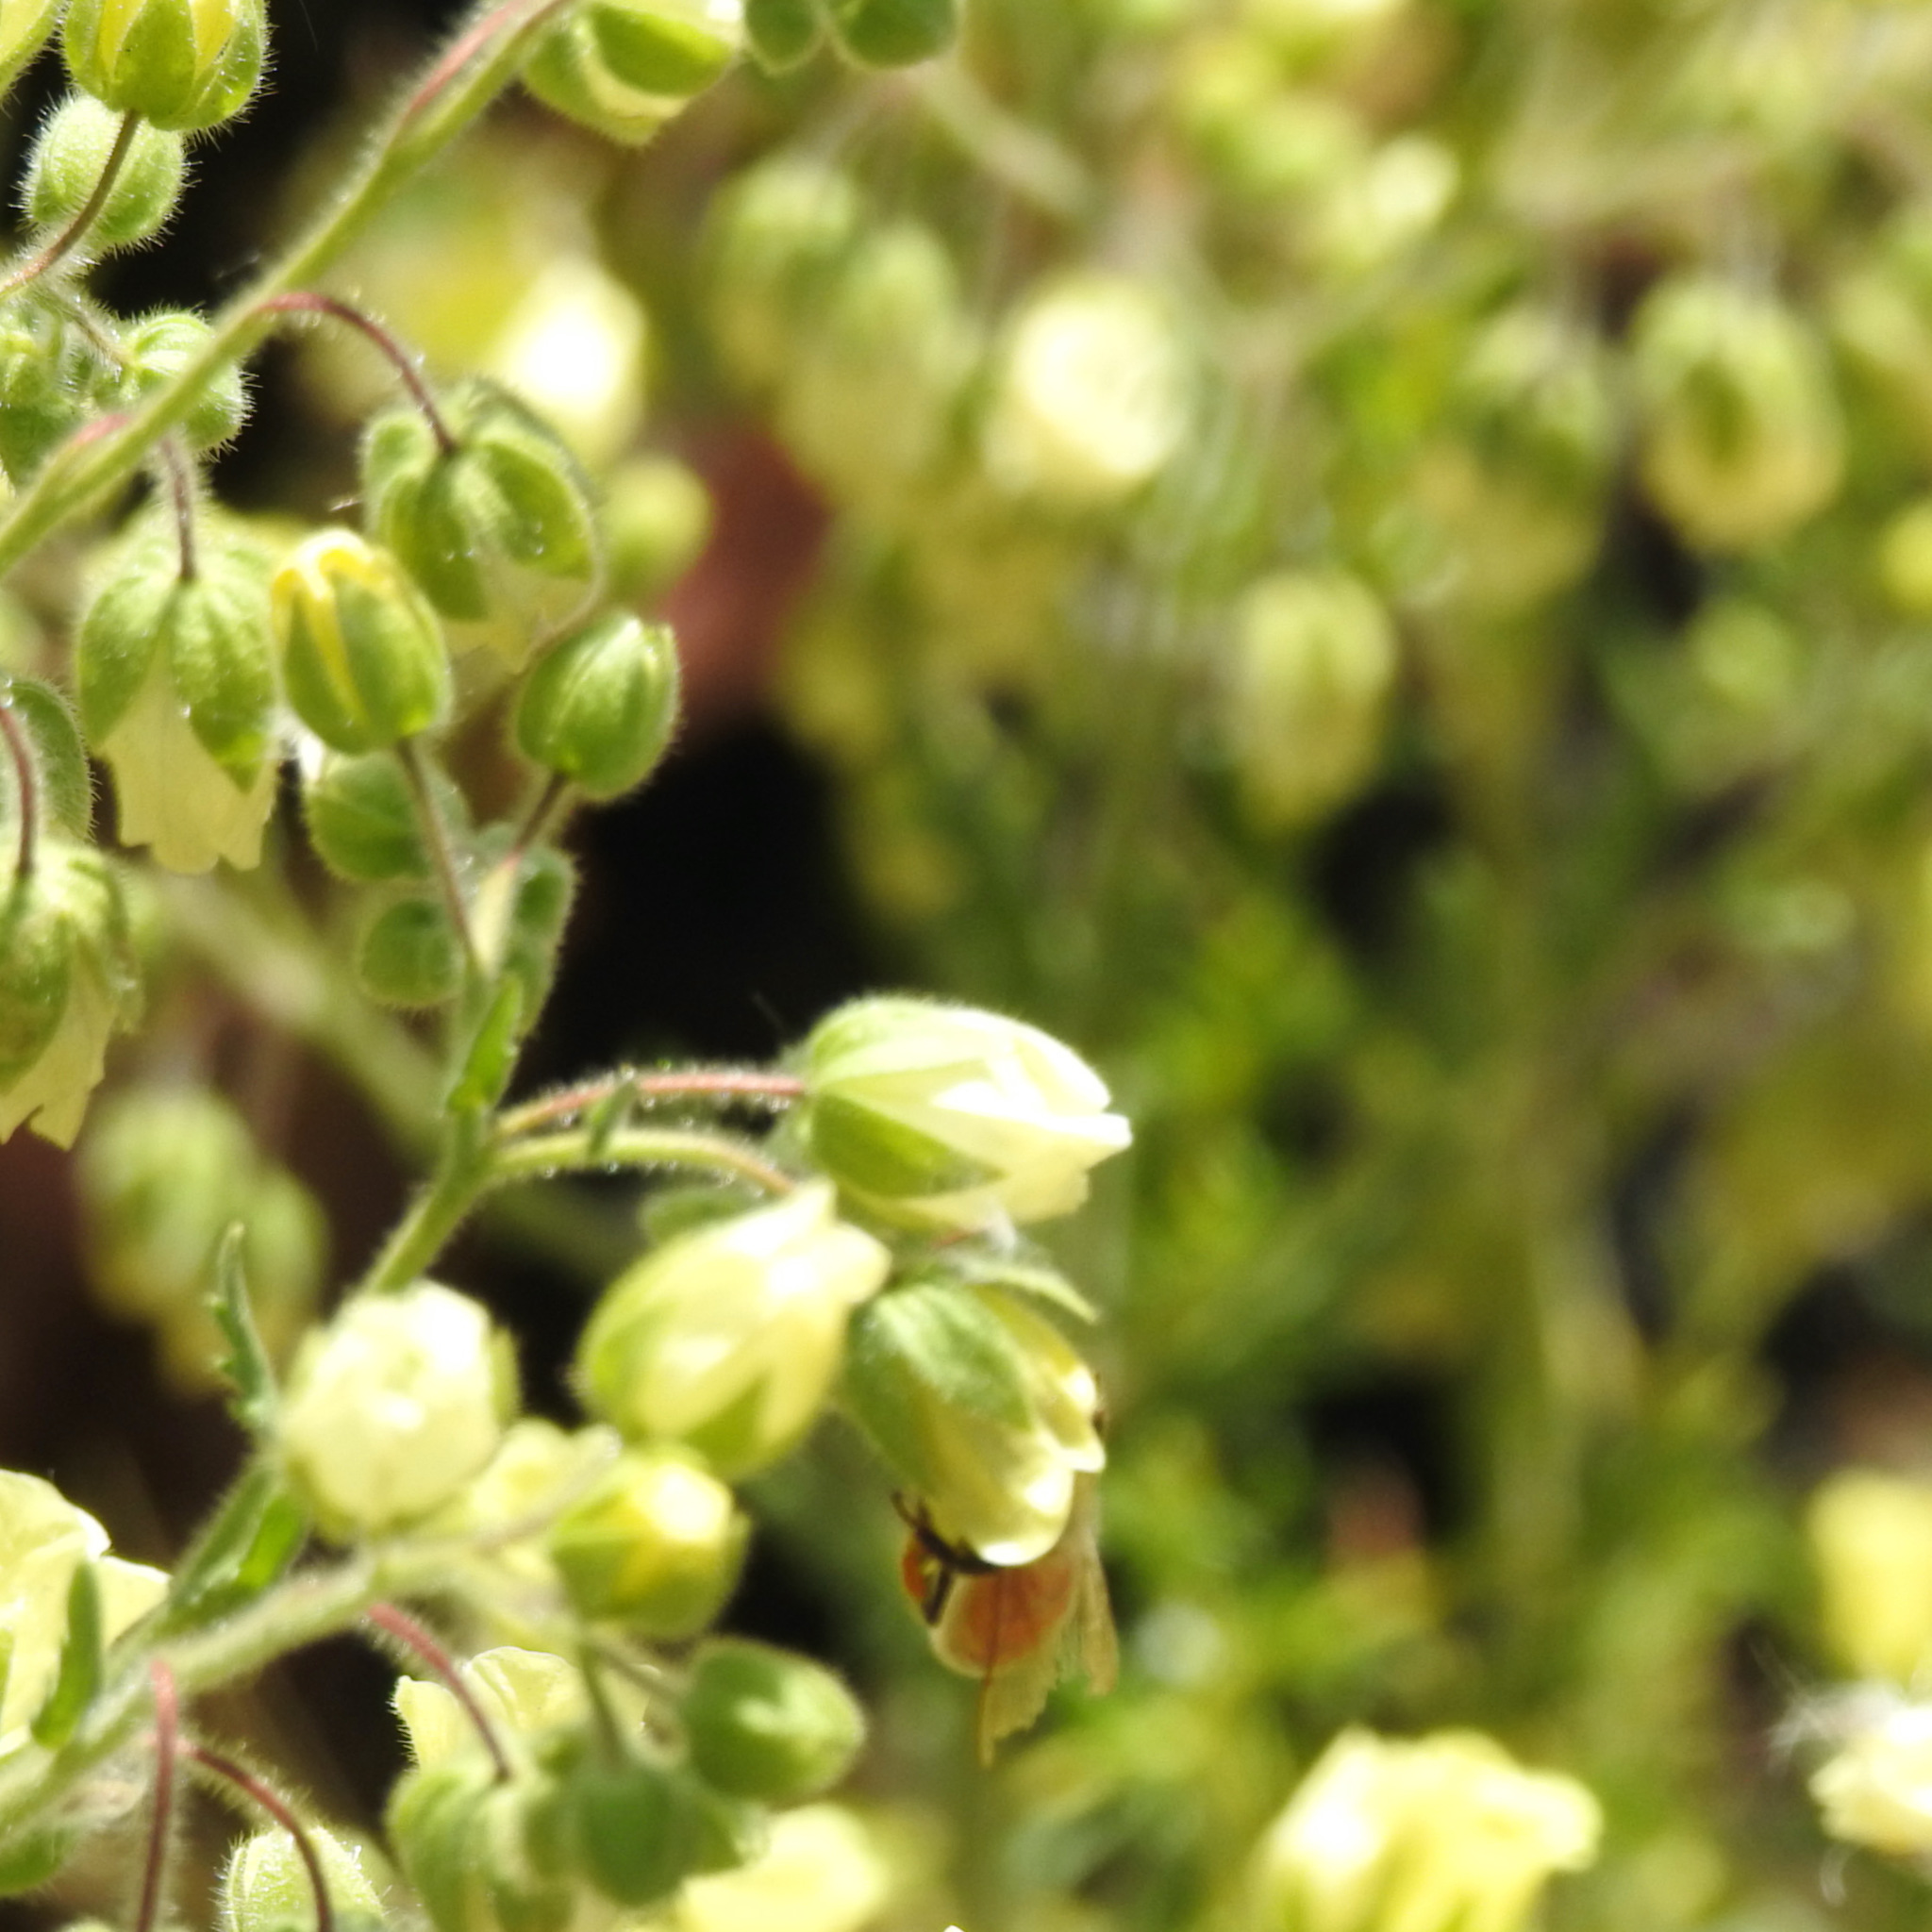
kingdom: Animalia
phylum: Arthropoda
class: Insecta
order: Hymenoptera
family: Apidae
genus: Apis
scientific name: Apis mellifera
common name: Honey bee
